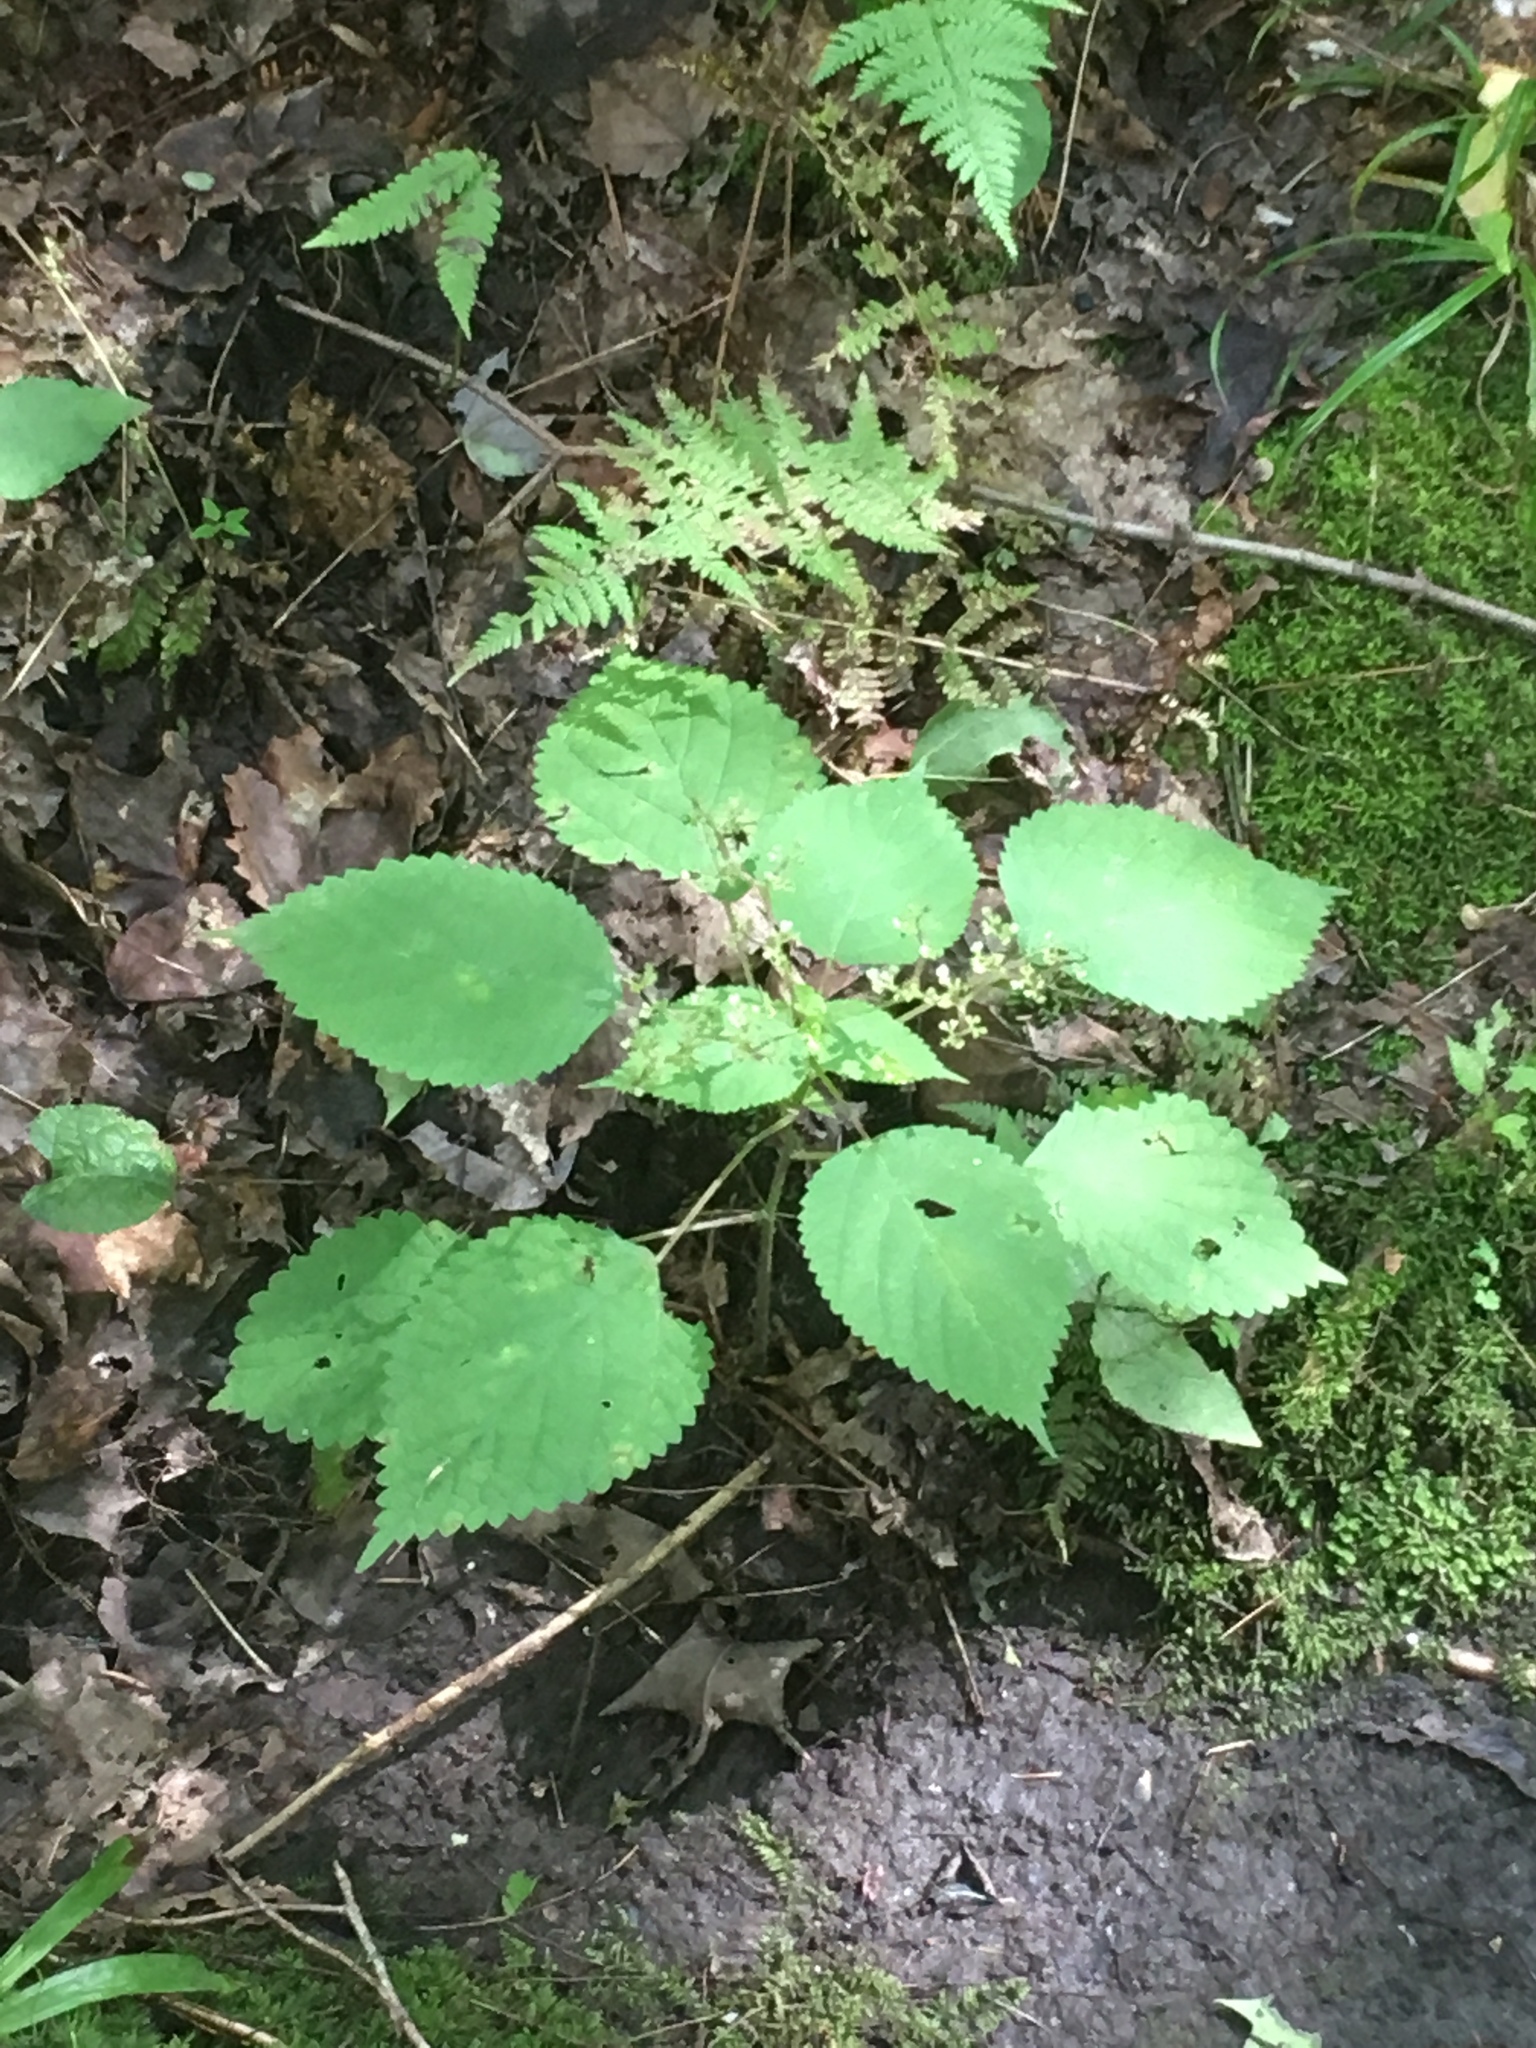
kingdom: Plantae
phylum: Tracheophyta
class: Magnoliopsida
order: Rosales
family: Urticaceae
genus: Laportea
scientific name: Laportea canadensis
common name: Canada nettle
